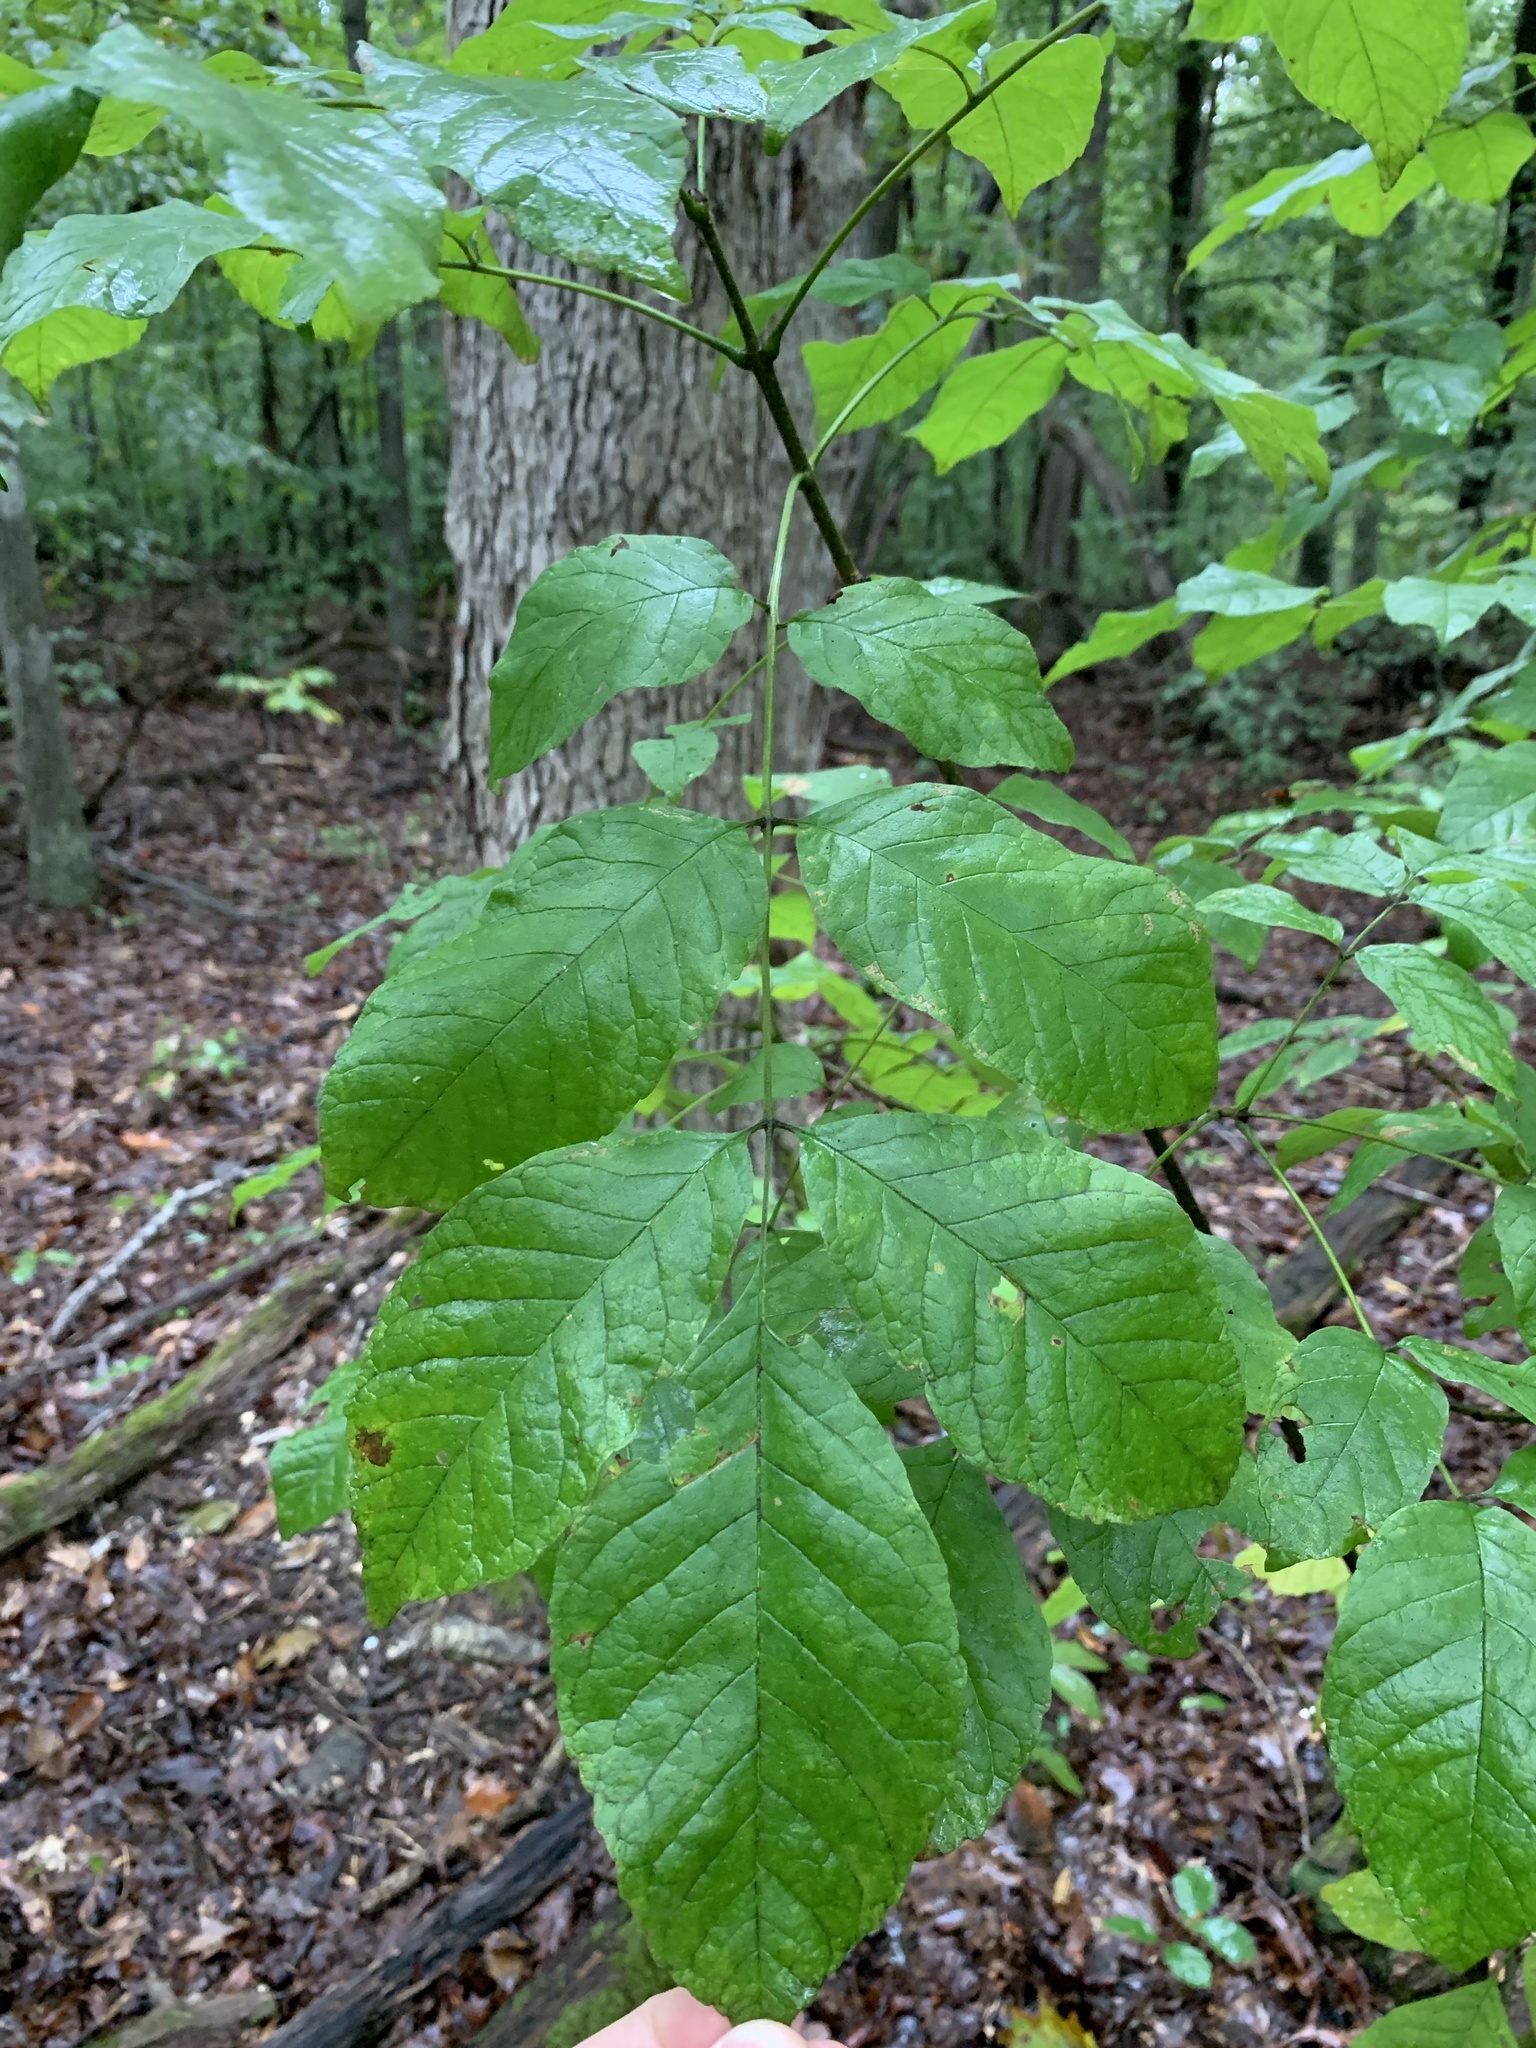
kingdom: Plantae
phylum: Tracheophyta
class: Magnoliopsida
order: Lamiales
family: Oleaceae
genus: Fraxinus
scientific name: Fraxinus americana
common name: White ash
